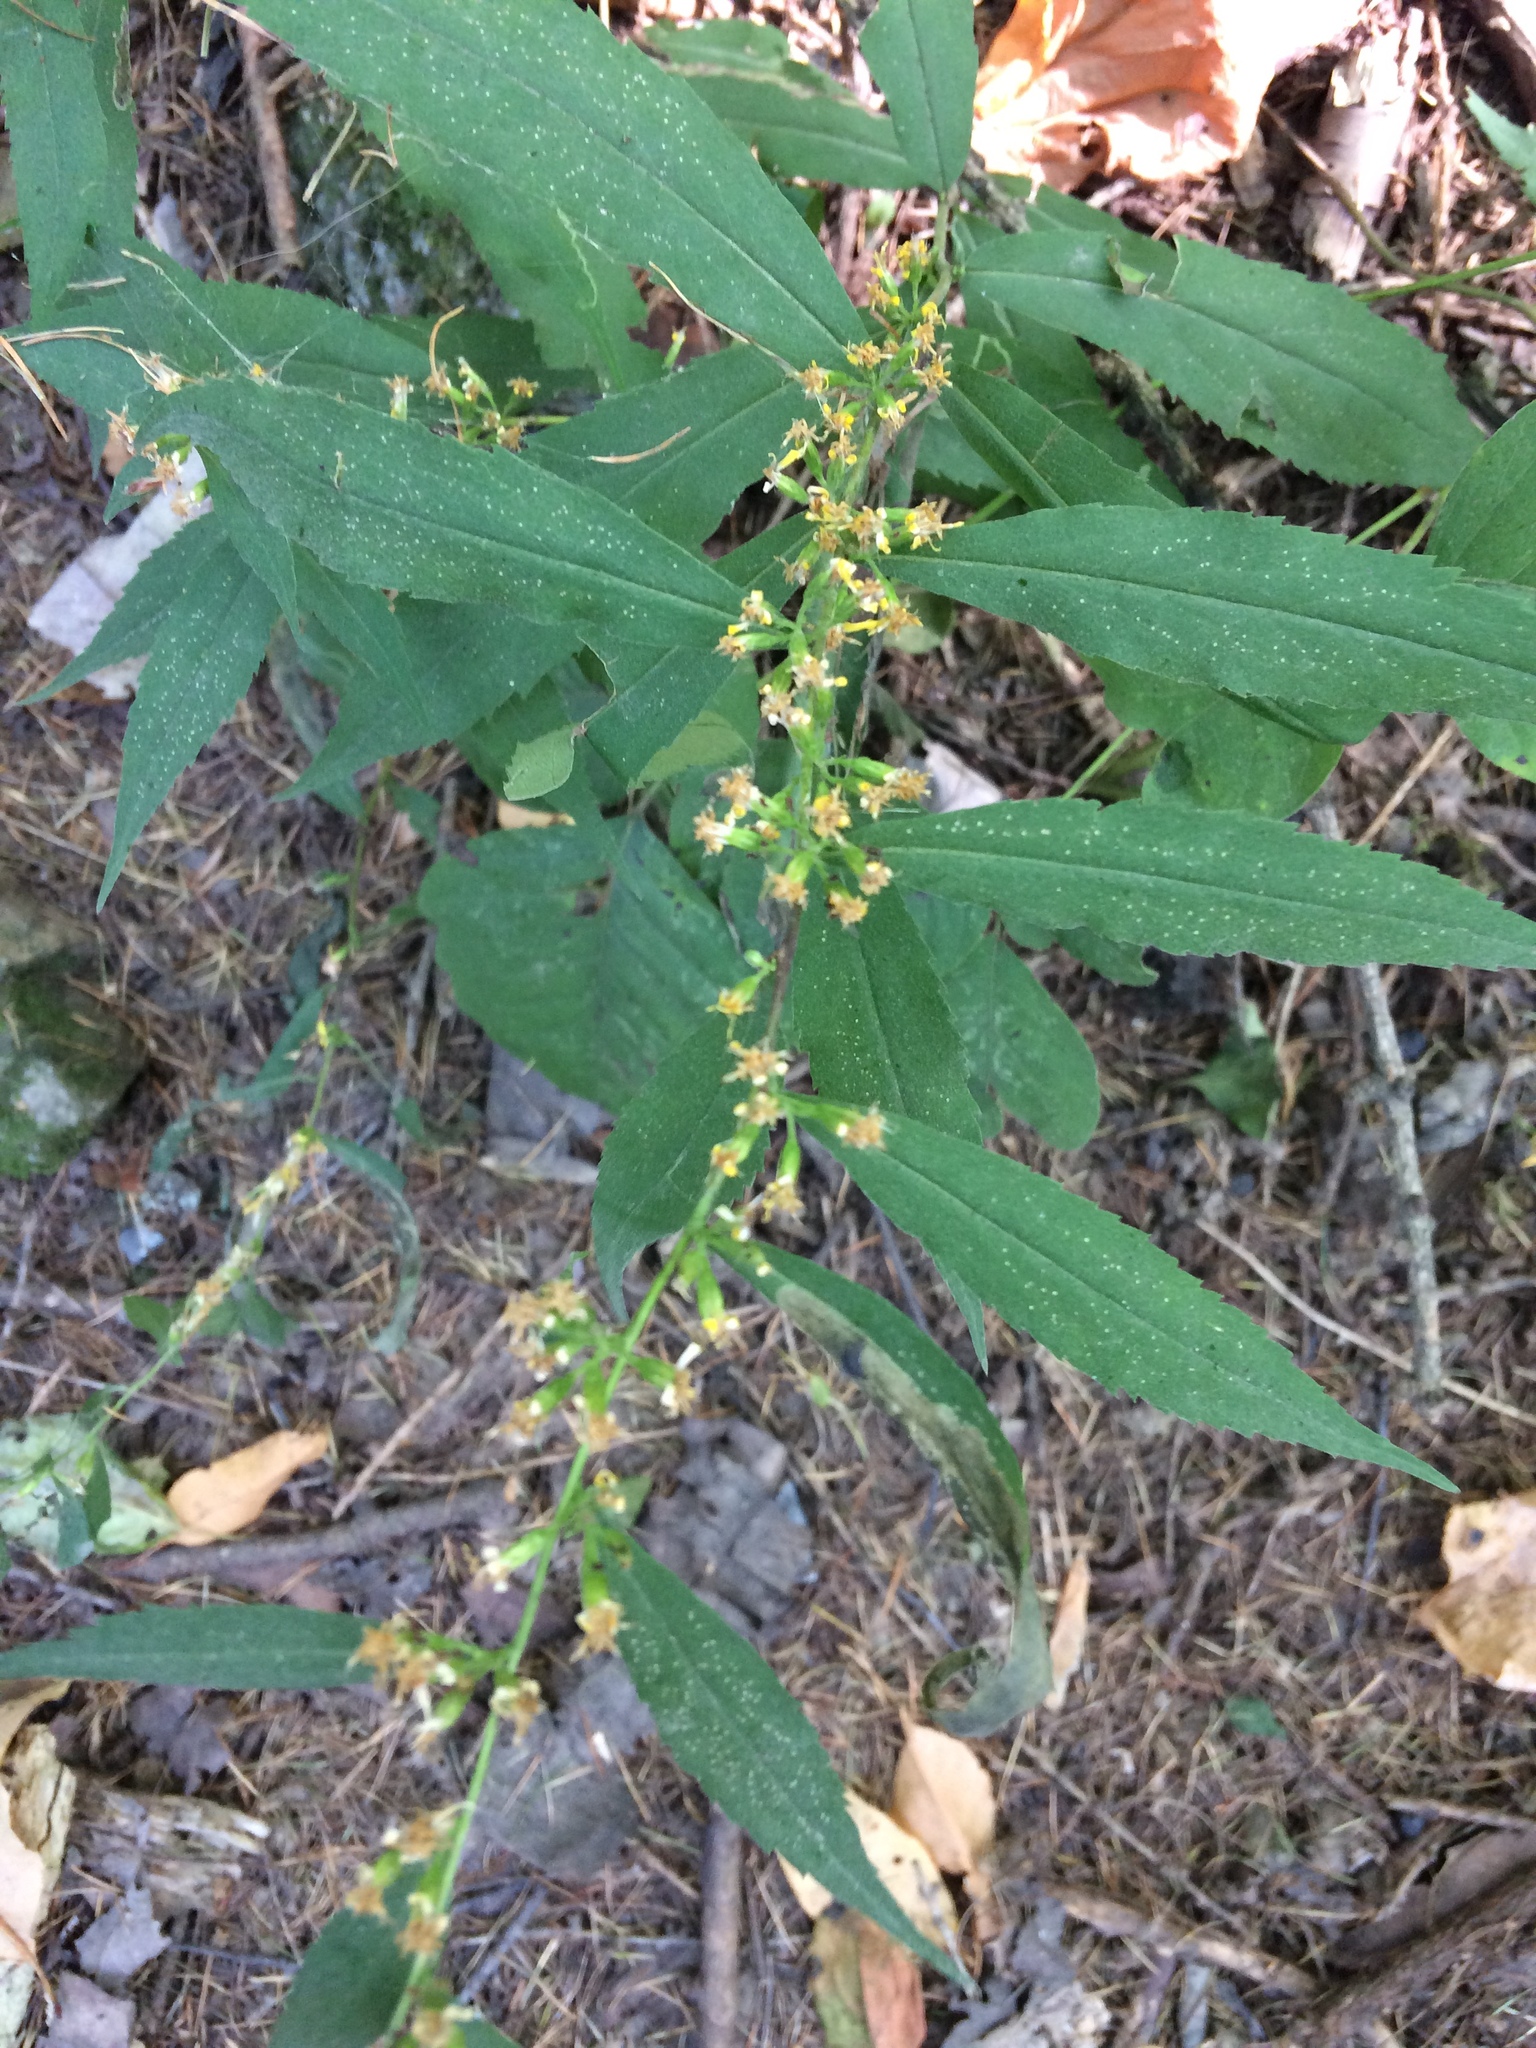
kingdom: Plantae
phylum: Tracheophyta
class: Magnoliopsida
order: Asterales
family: Asteraceae
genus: Solidago
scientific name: Solidago caesia
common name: Woodland goldenrod
